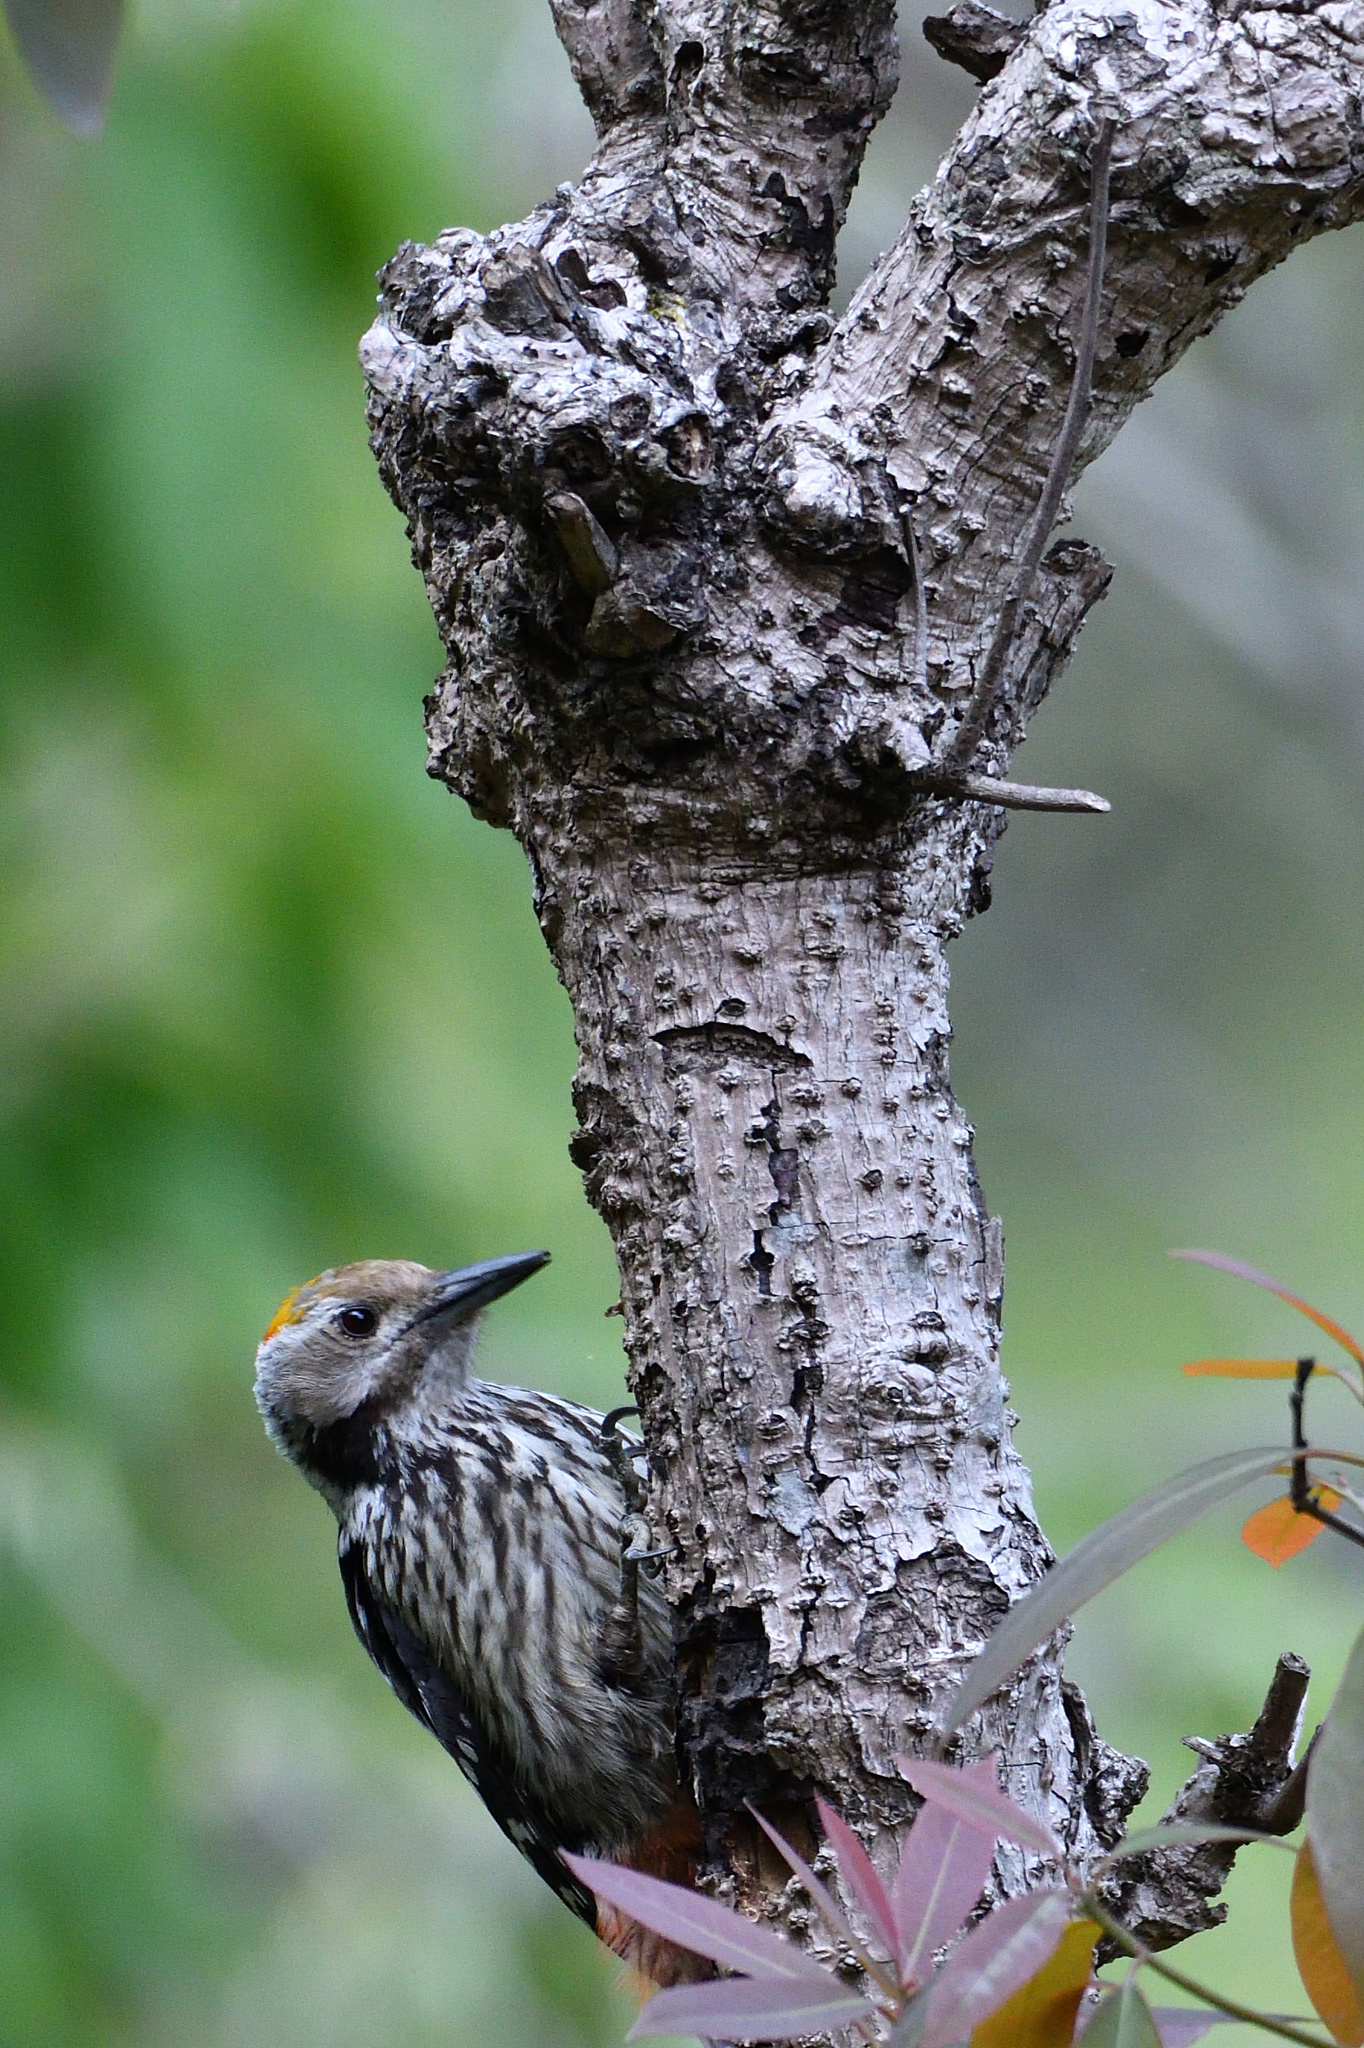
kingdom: Animalia
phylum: Chordata
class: Aves
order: Piciformes
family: Picidae
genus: Dendrocoptes
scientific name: Dendrocoptes auriceps
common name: Brown-fronted woodpecker
